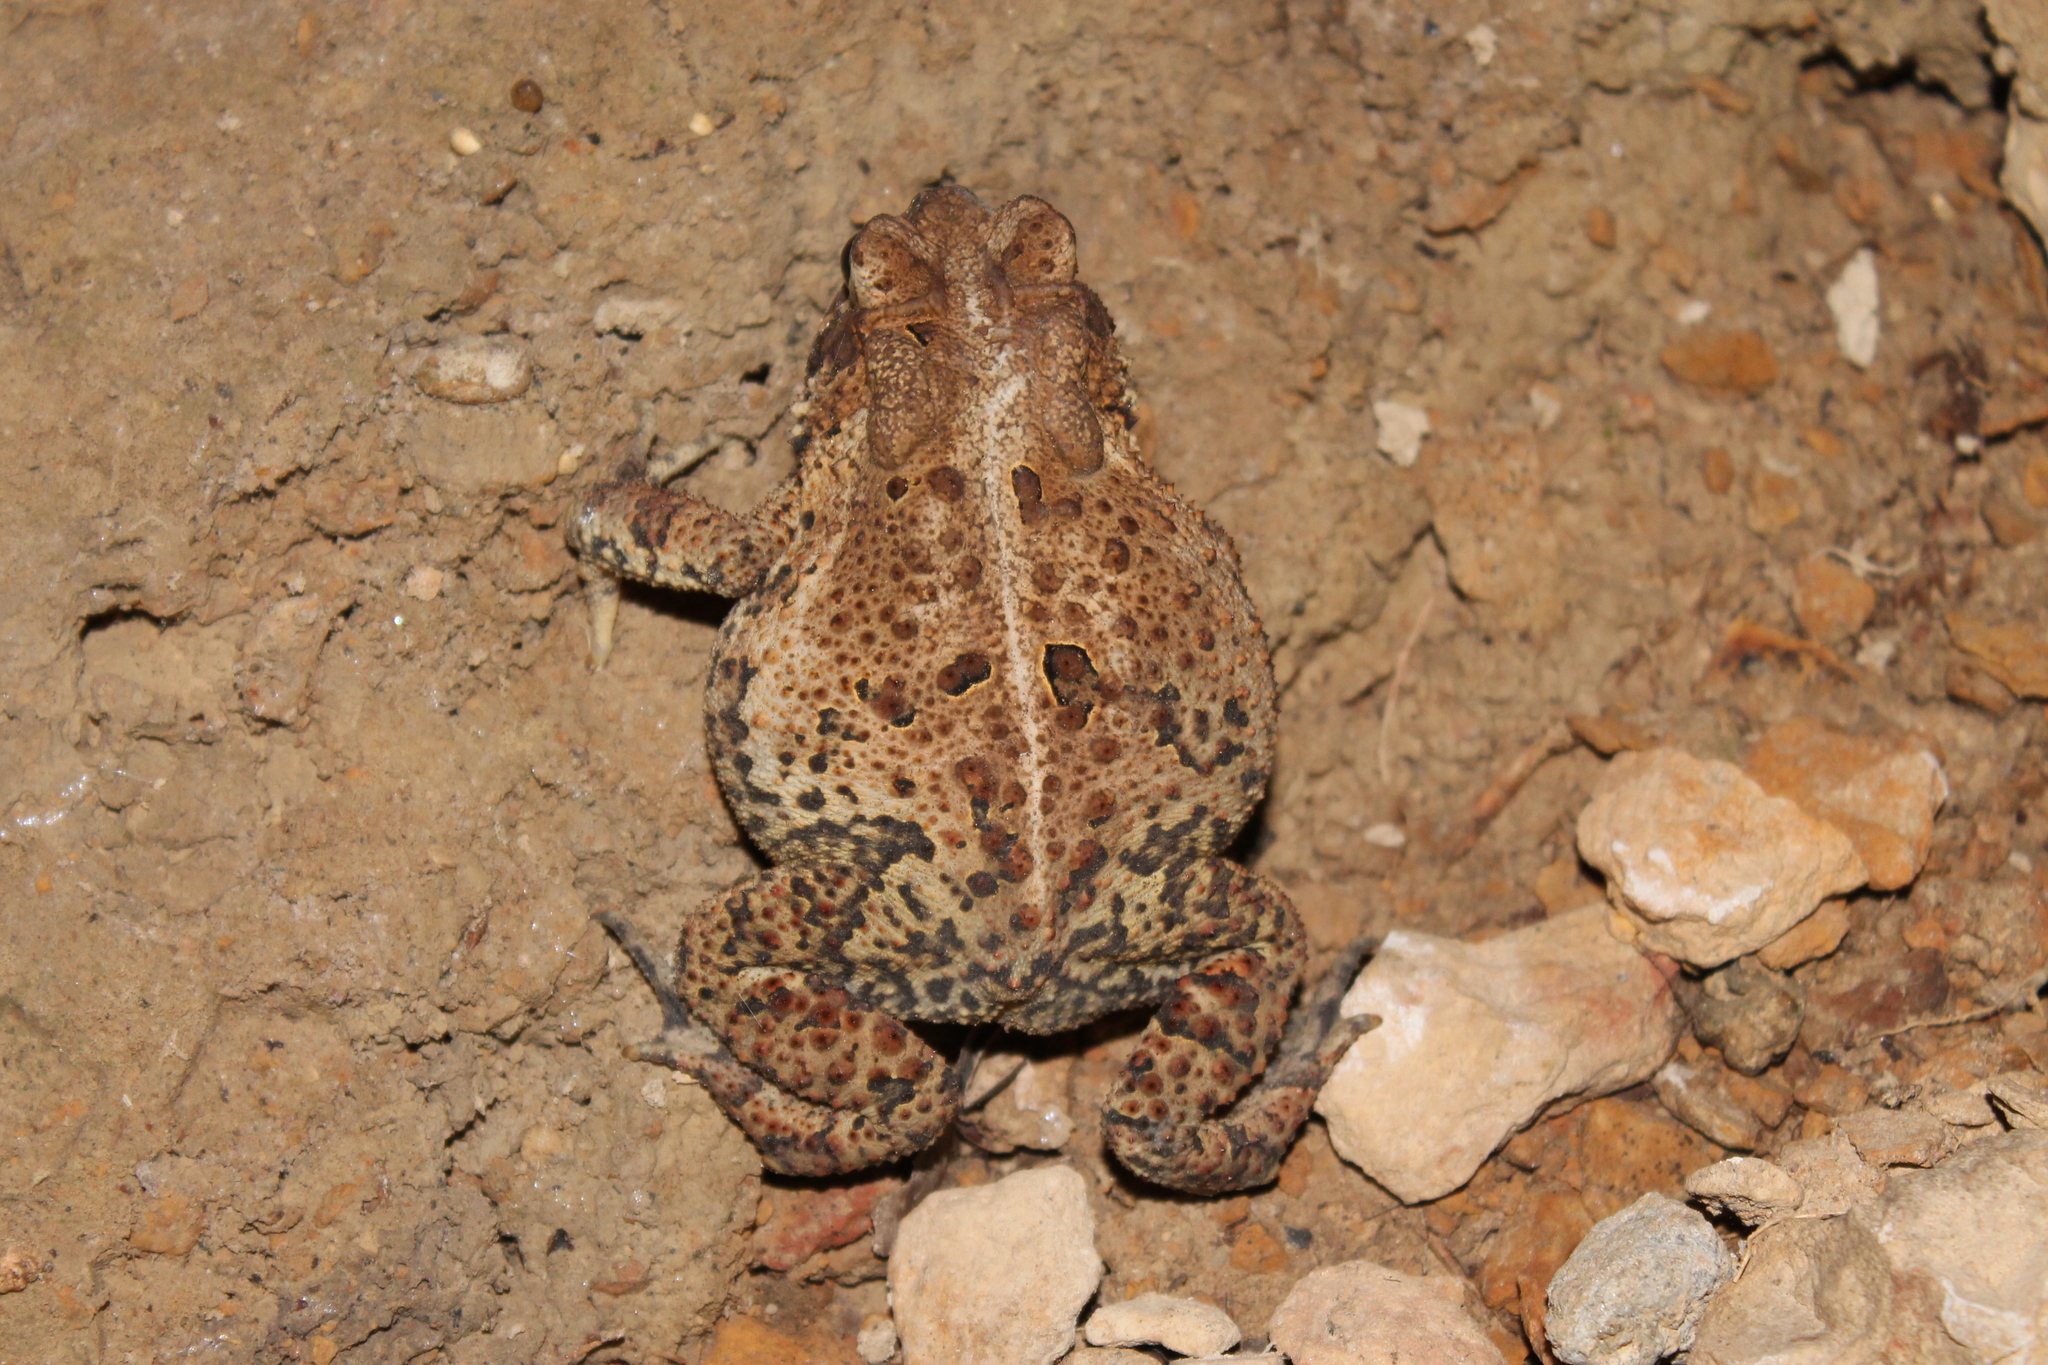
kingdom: Animalia
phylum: Chordata
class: Amphibia
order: Anura
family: Bufonidae
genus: Anaxyrus
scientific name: Anaxyrus americanus
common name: American toad
